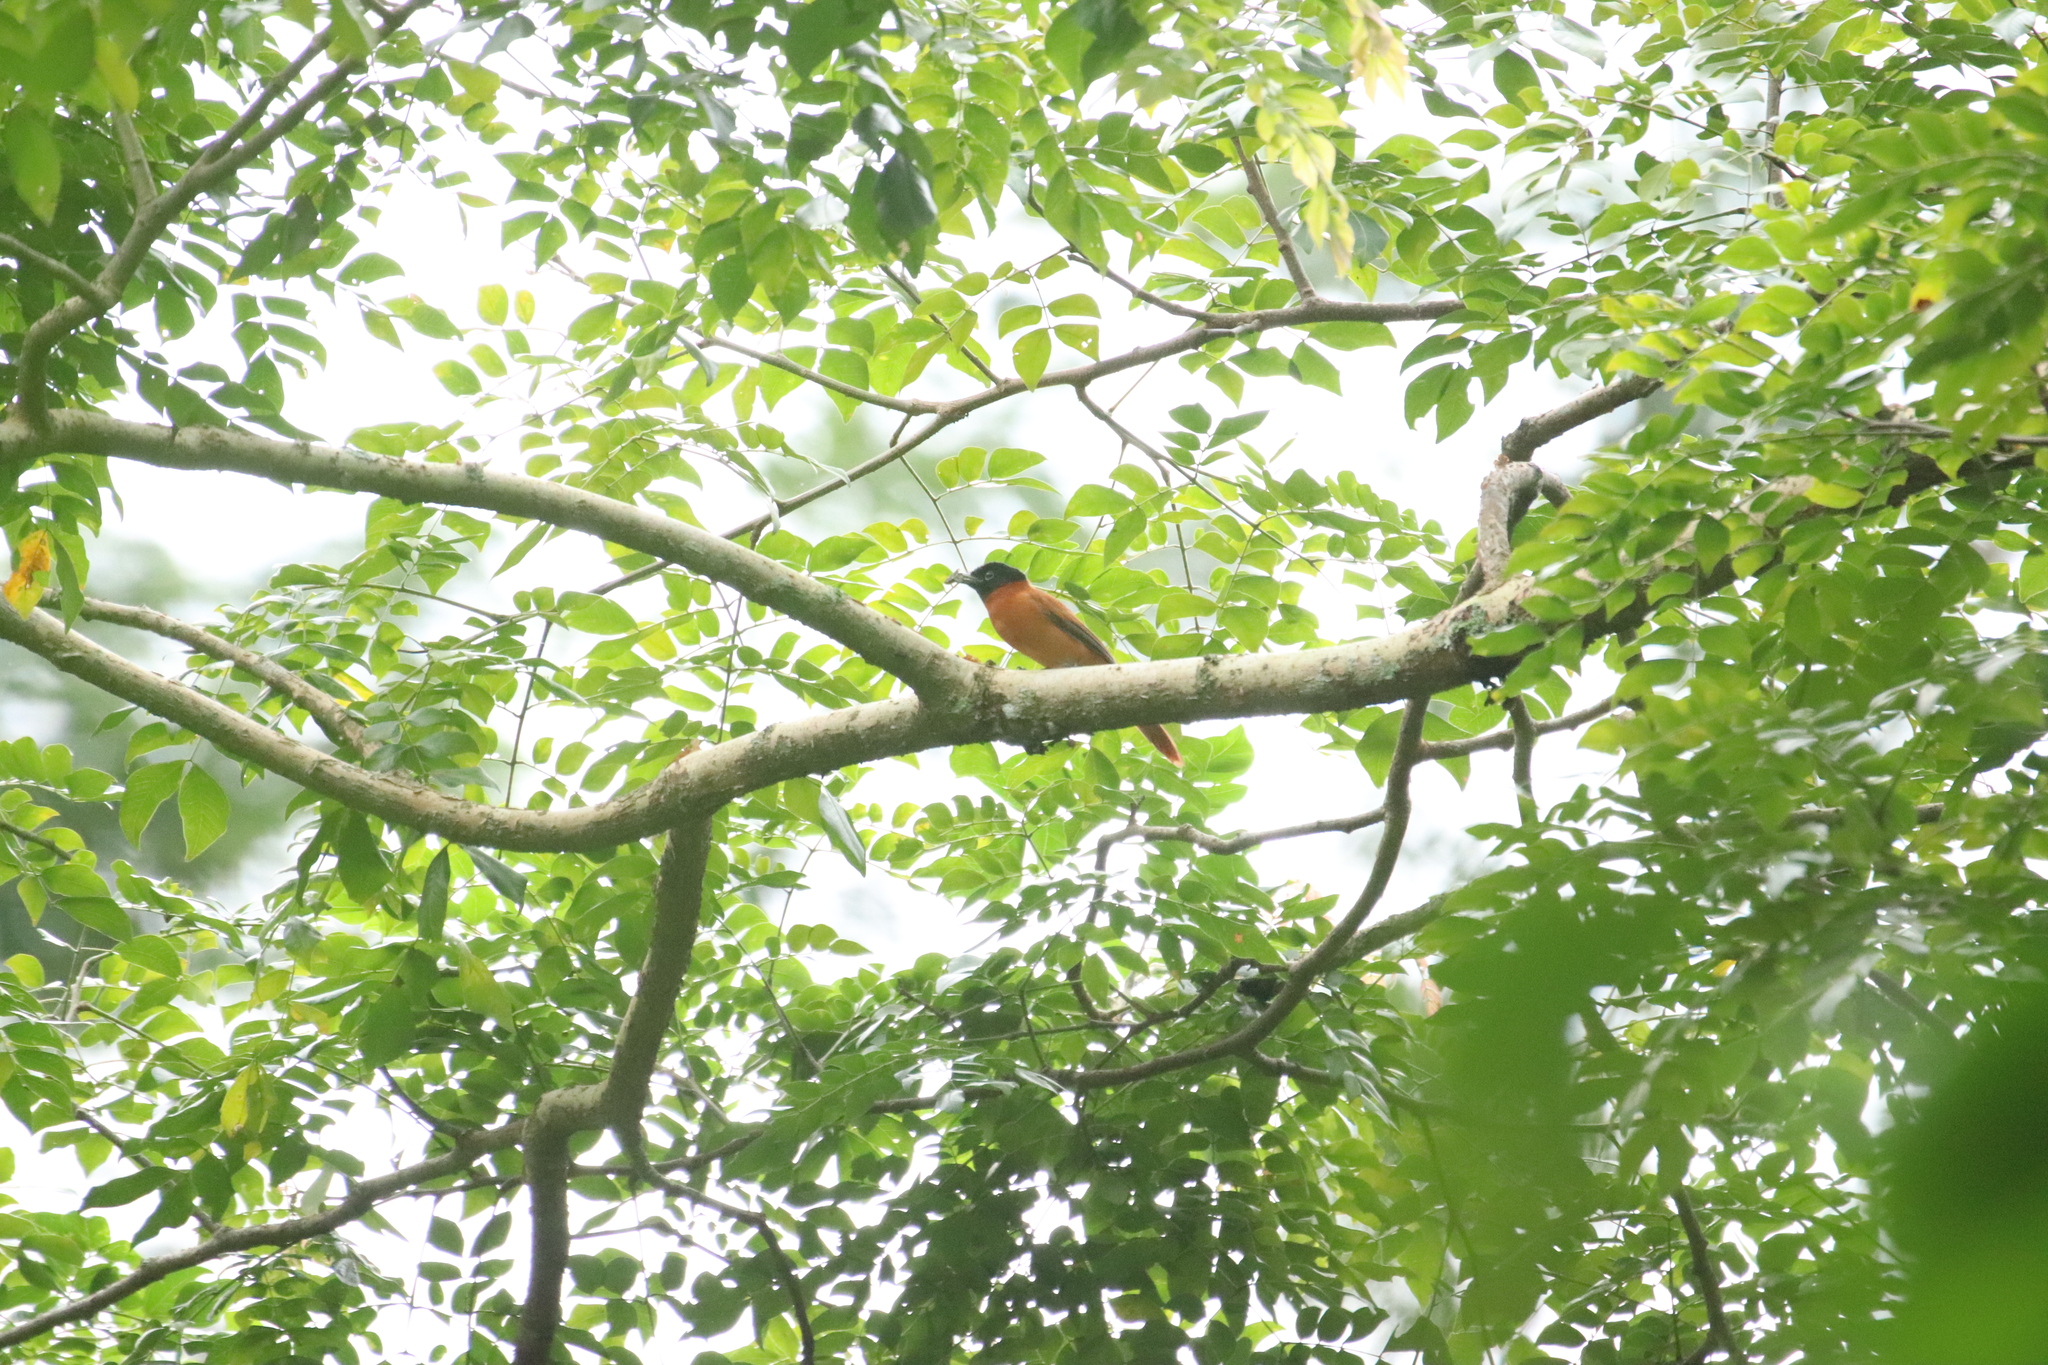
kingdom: Animalia
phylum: Chordata
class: Aves
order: Passeriformes
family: Monarchidae
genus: Terpsiphone
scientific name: Terpsiphone rufiventer
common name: Red-bellied paradise flycatcher
